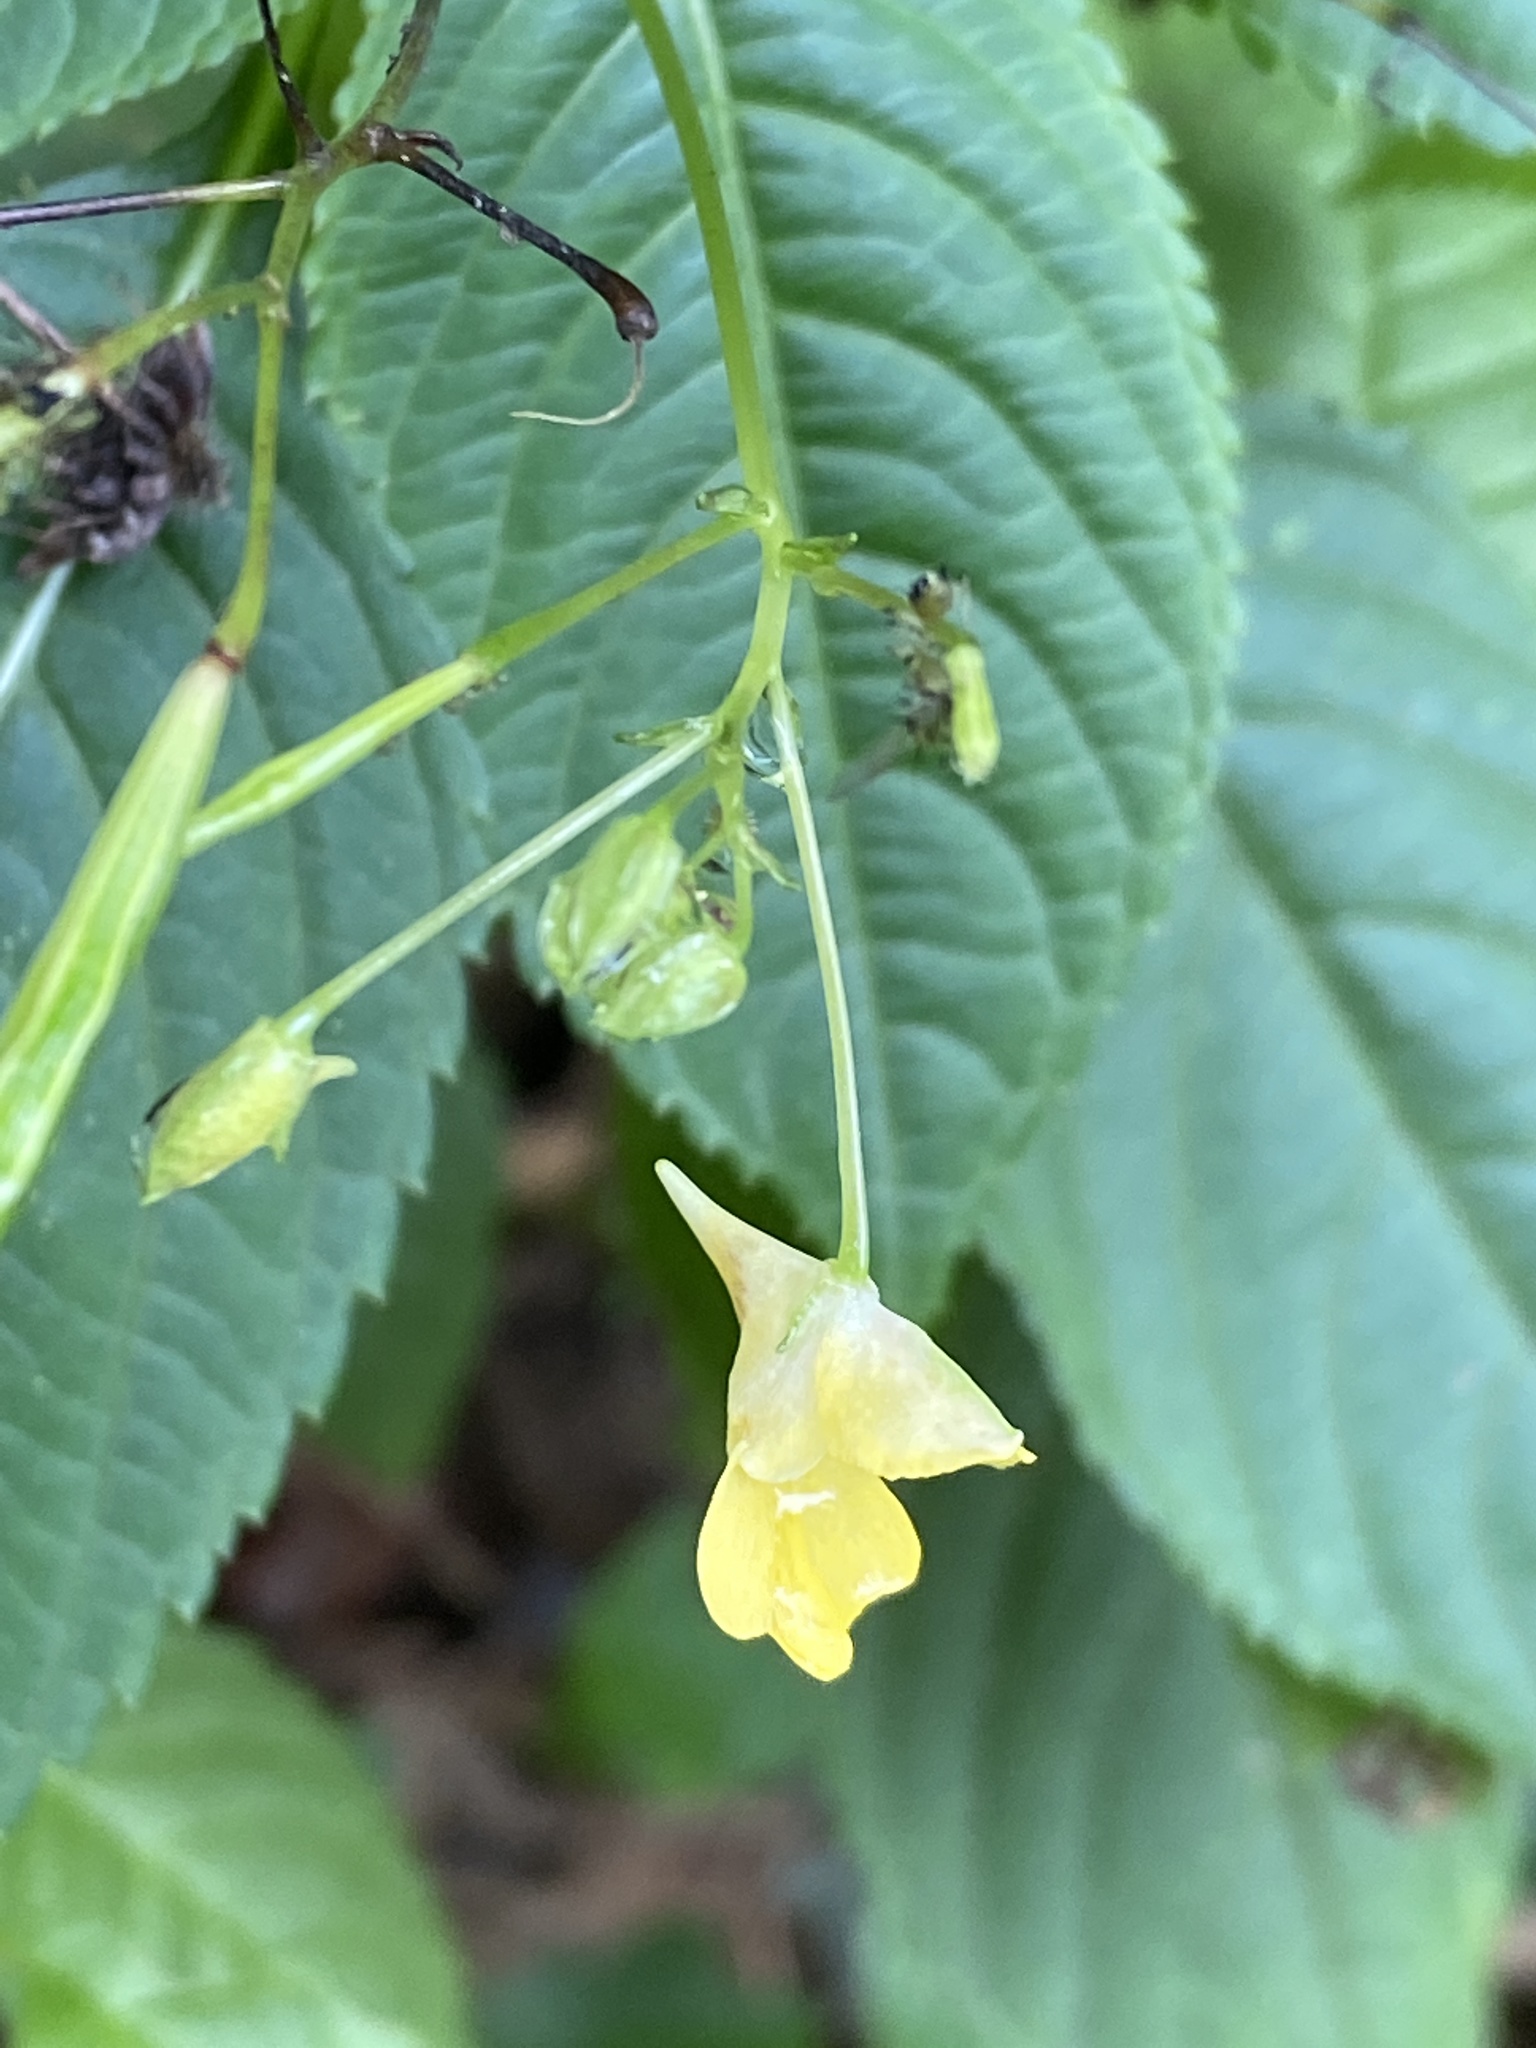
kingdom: Plantae
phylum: Tracheophyta
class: Magnoliopsida
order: Ericales
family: Balsaminaceae
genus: Impatiens
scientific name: Impatiens parviflora
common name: Small balsam
